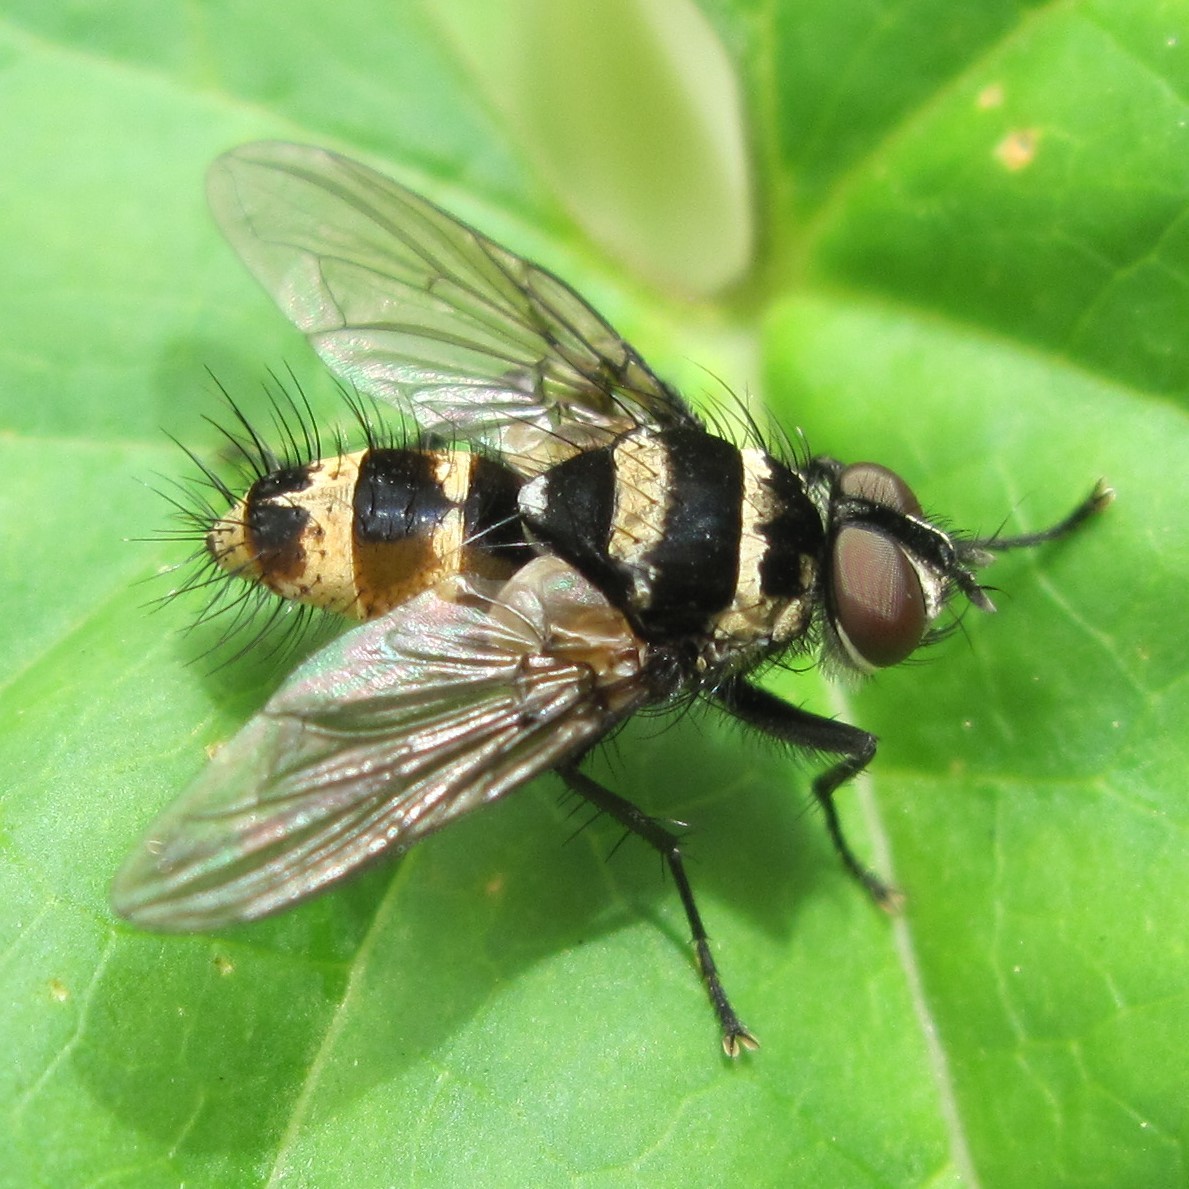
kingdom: Animalia
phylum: Arthropoda
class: Insecta
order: Diptera
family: Tachinidae
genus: Trigonospila
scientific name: Trigonospila brevifacies
